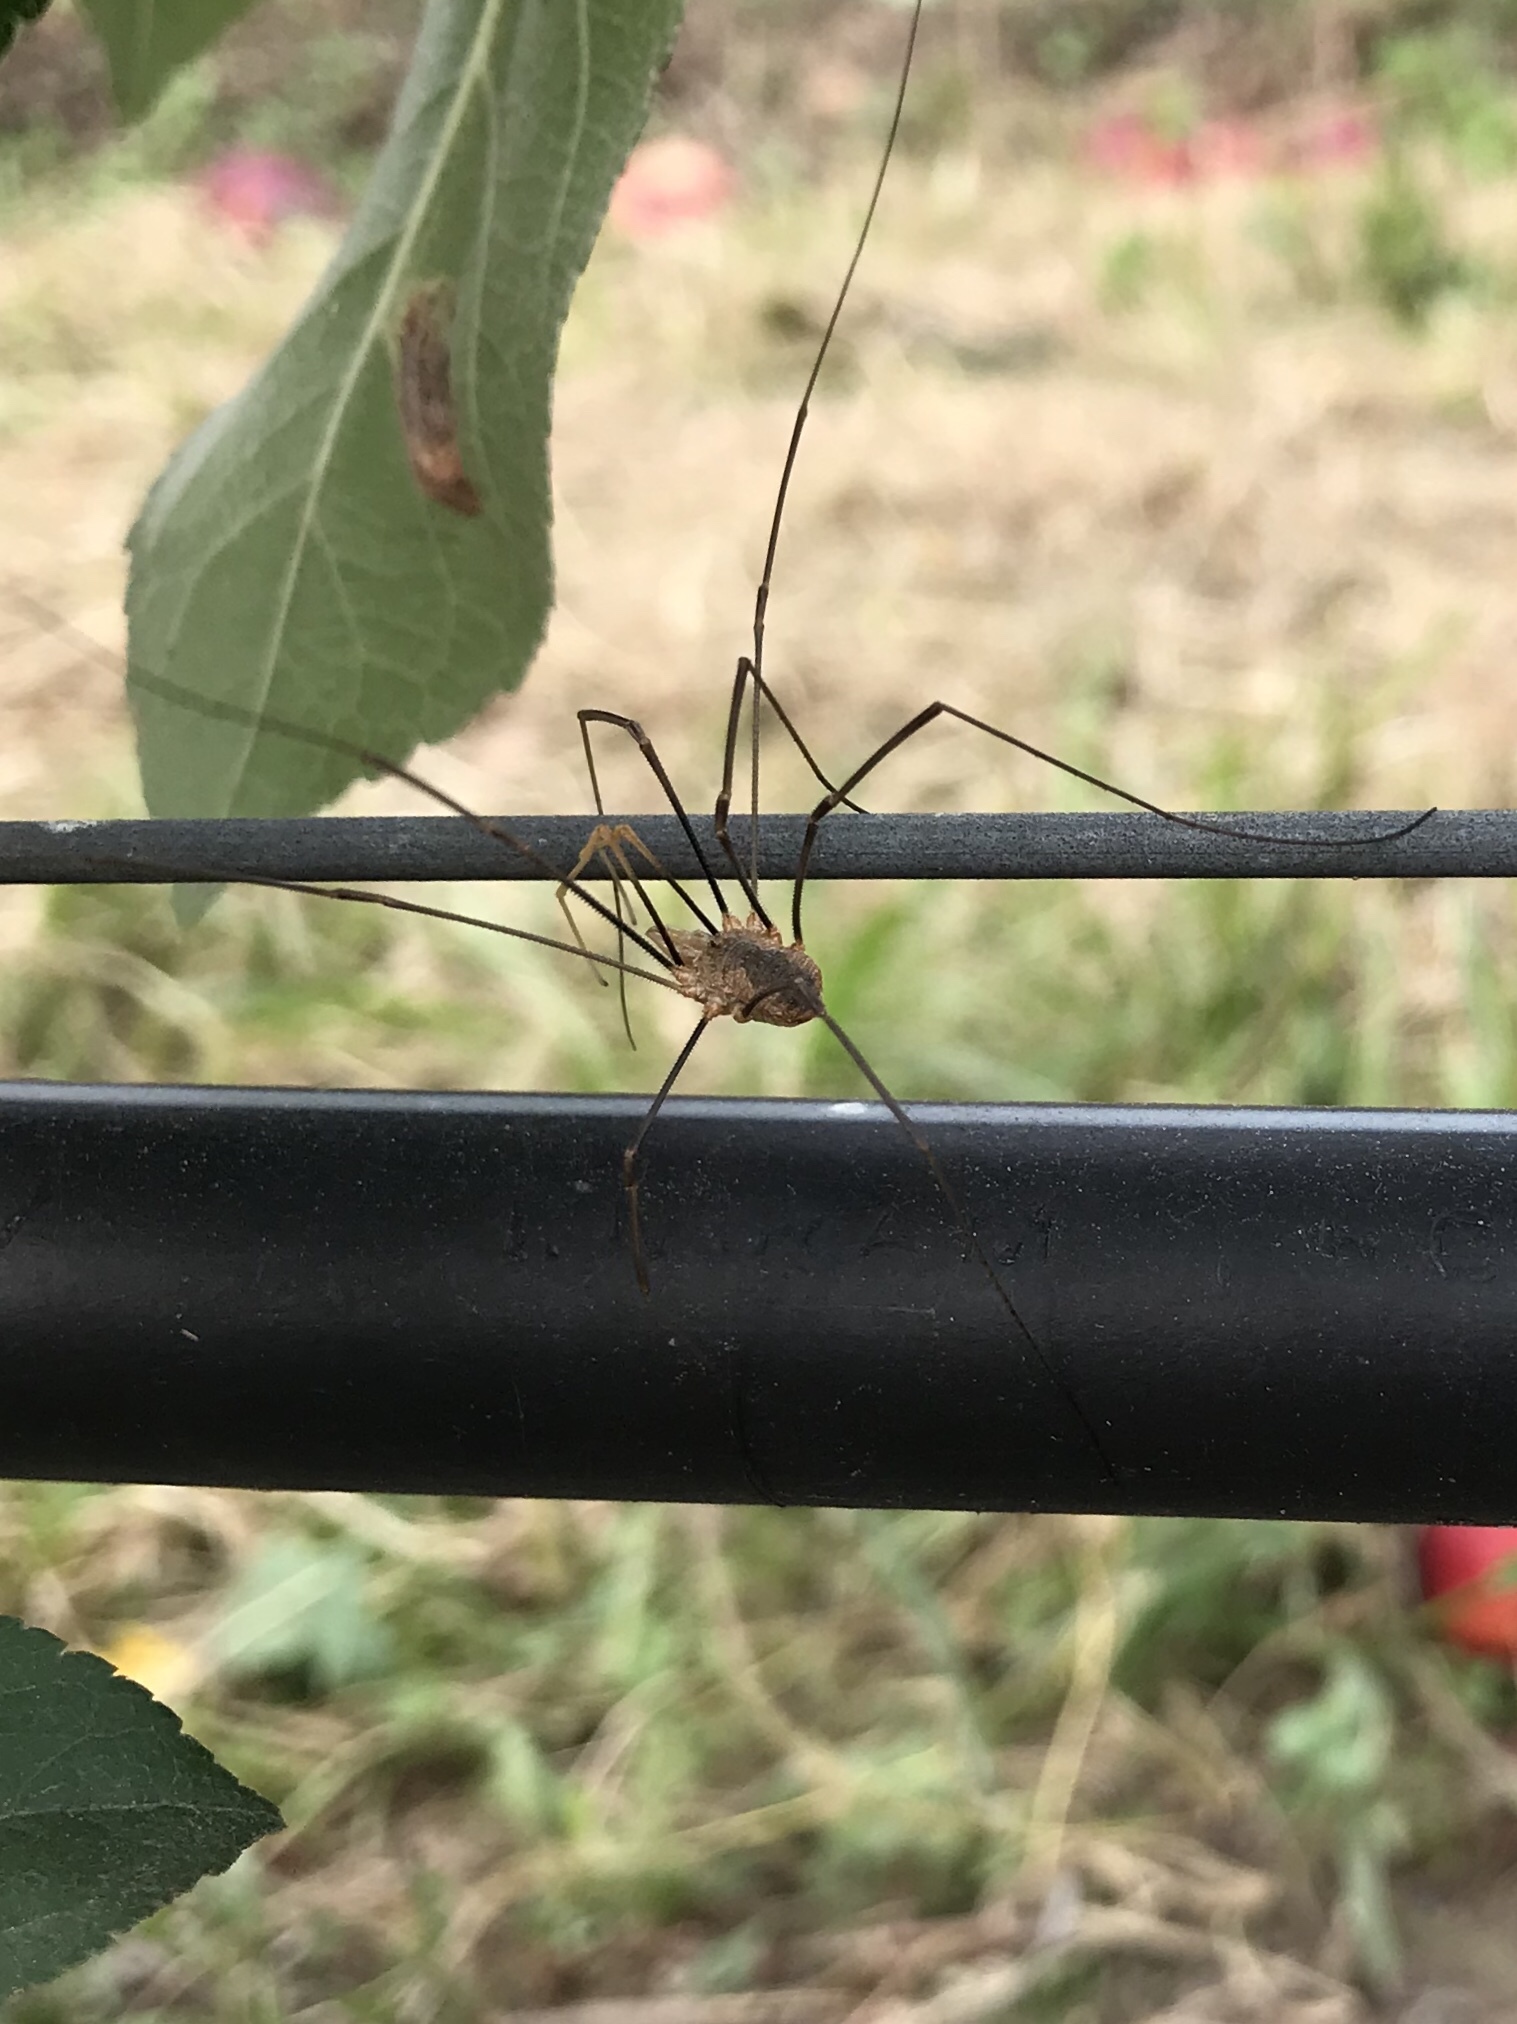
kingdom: Animalia
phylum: Arthropoda
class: Arachnida
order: Opiliones
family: Phalangiidae
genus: Phalangium
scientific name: Phalangium opilio
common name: Daddy longleg
